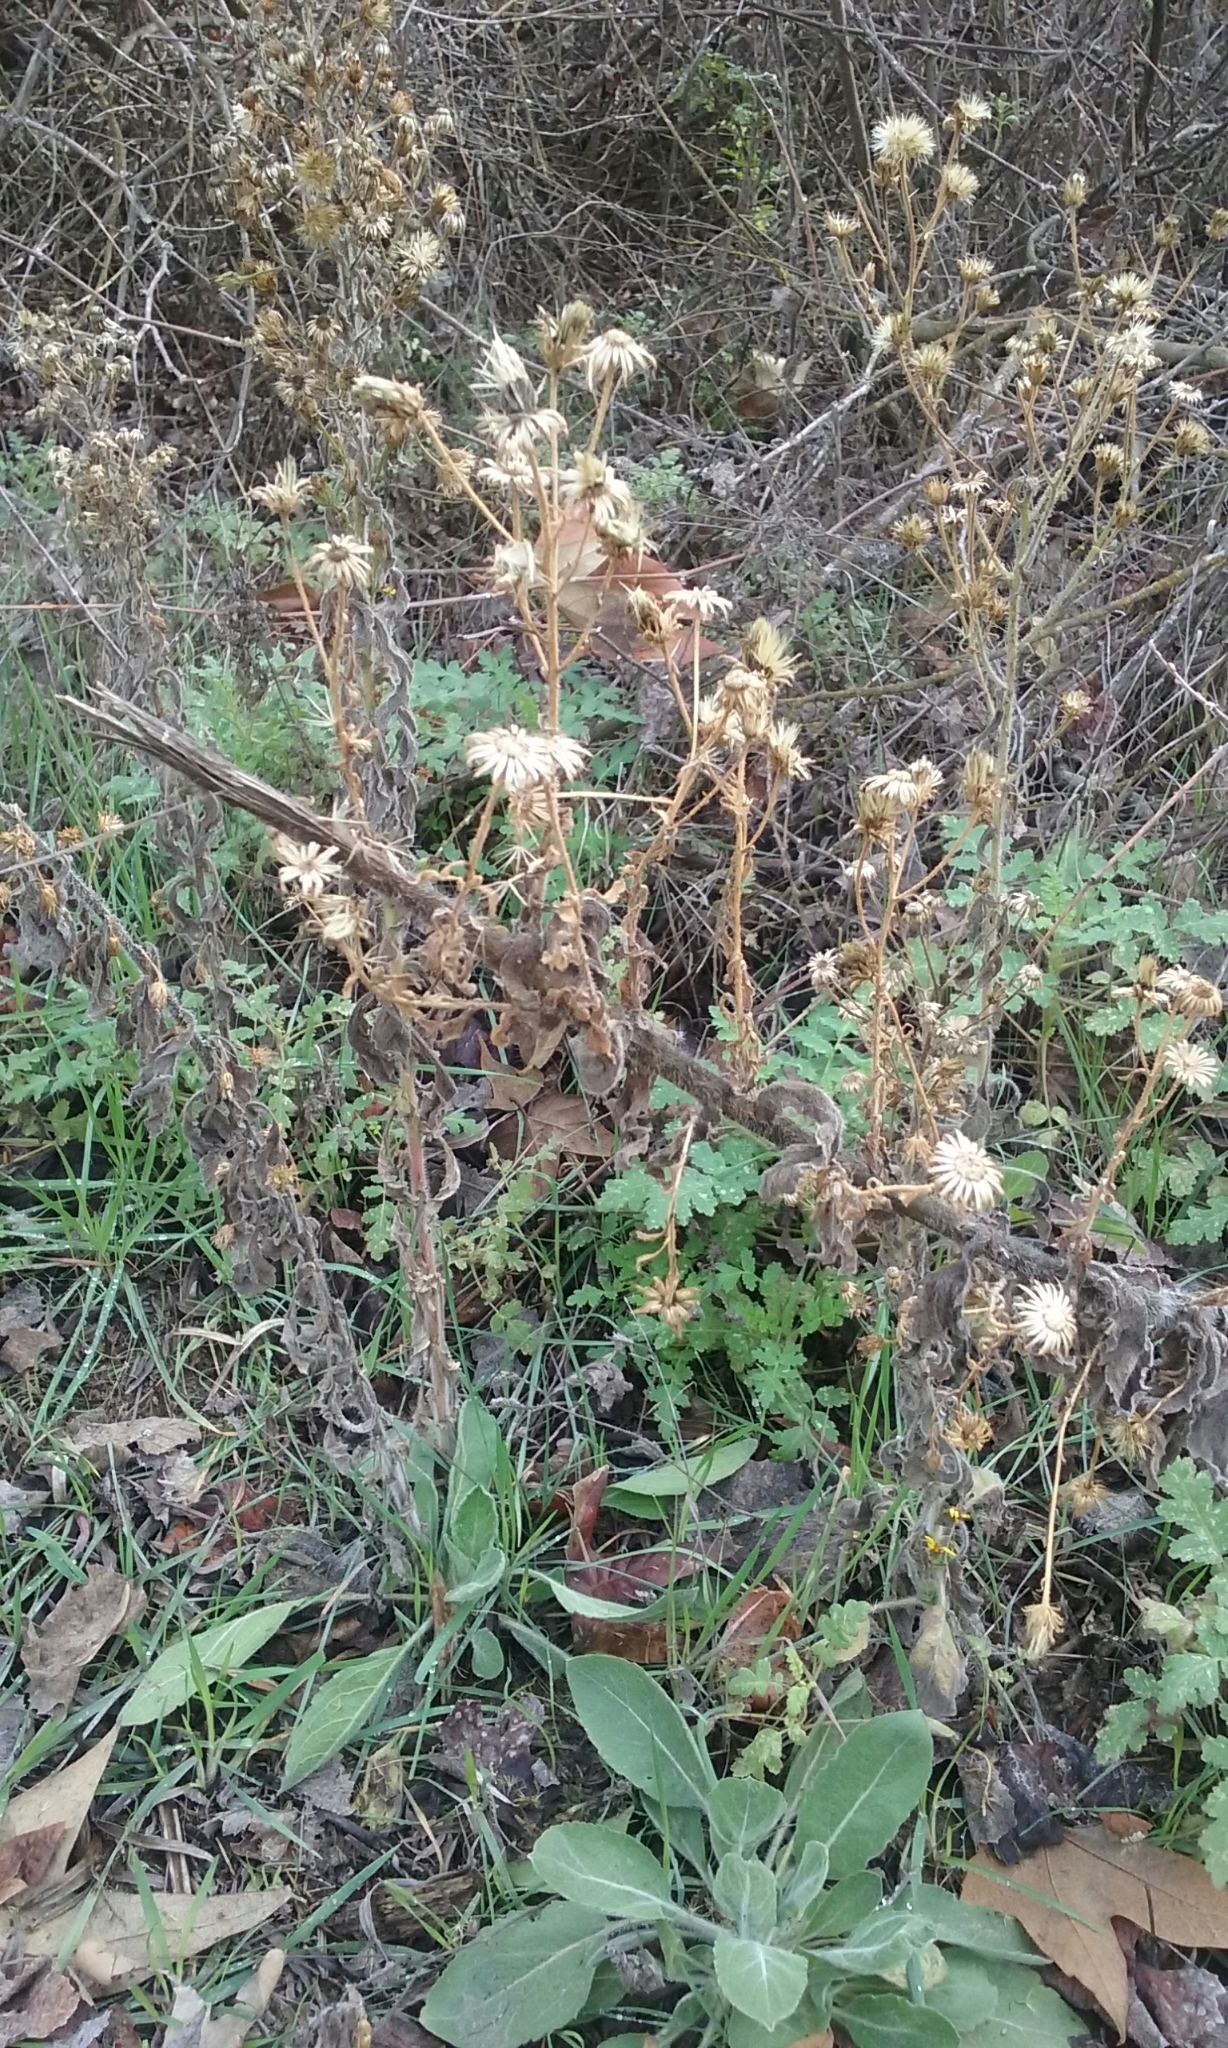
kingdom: Plantae
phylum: Tracheophyta
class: Magnoliopsida
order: Asterales
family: Asteraceae
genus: Heterotheca
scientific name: Heterotheca grandiflora
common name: Telegraphweed
